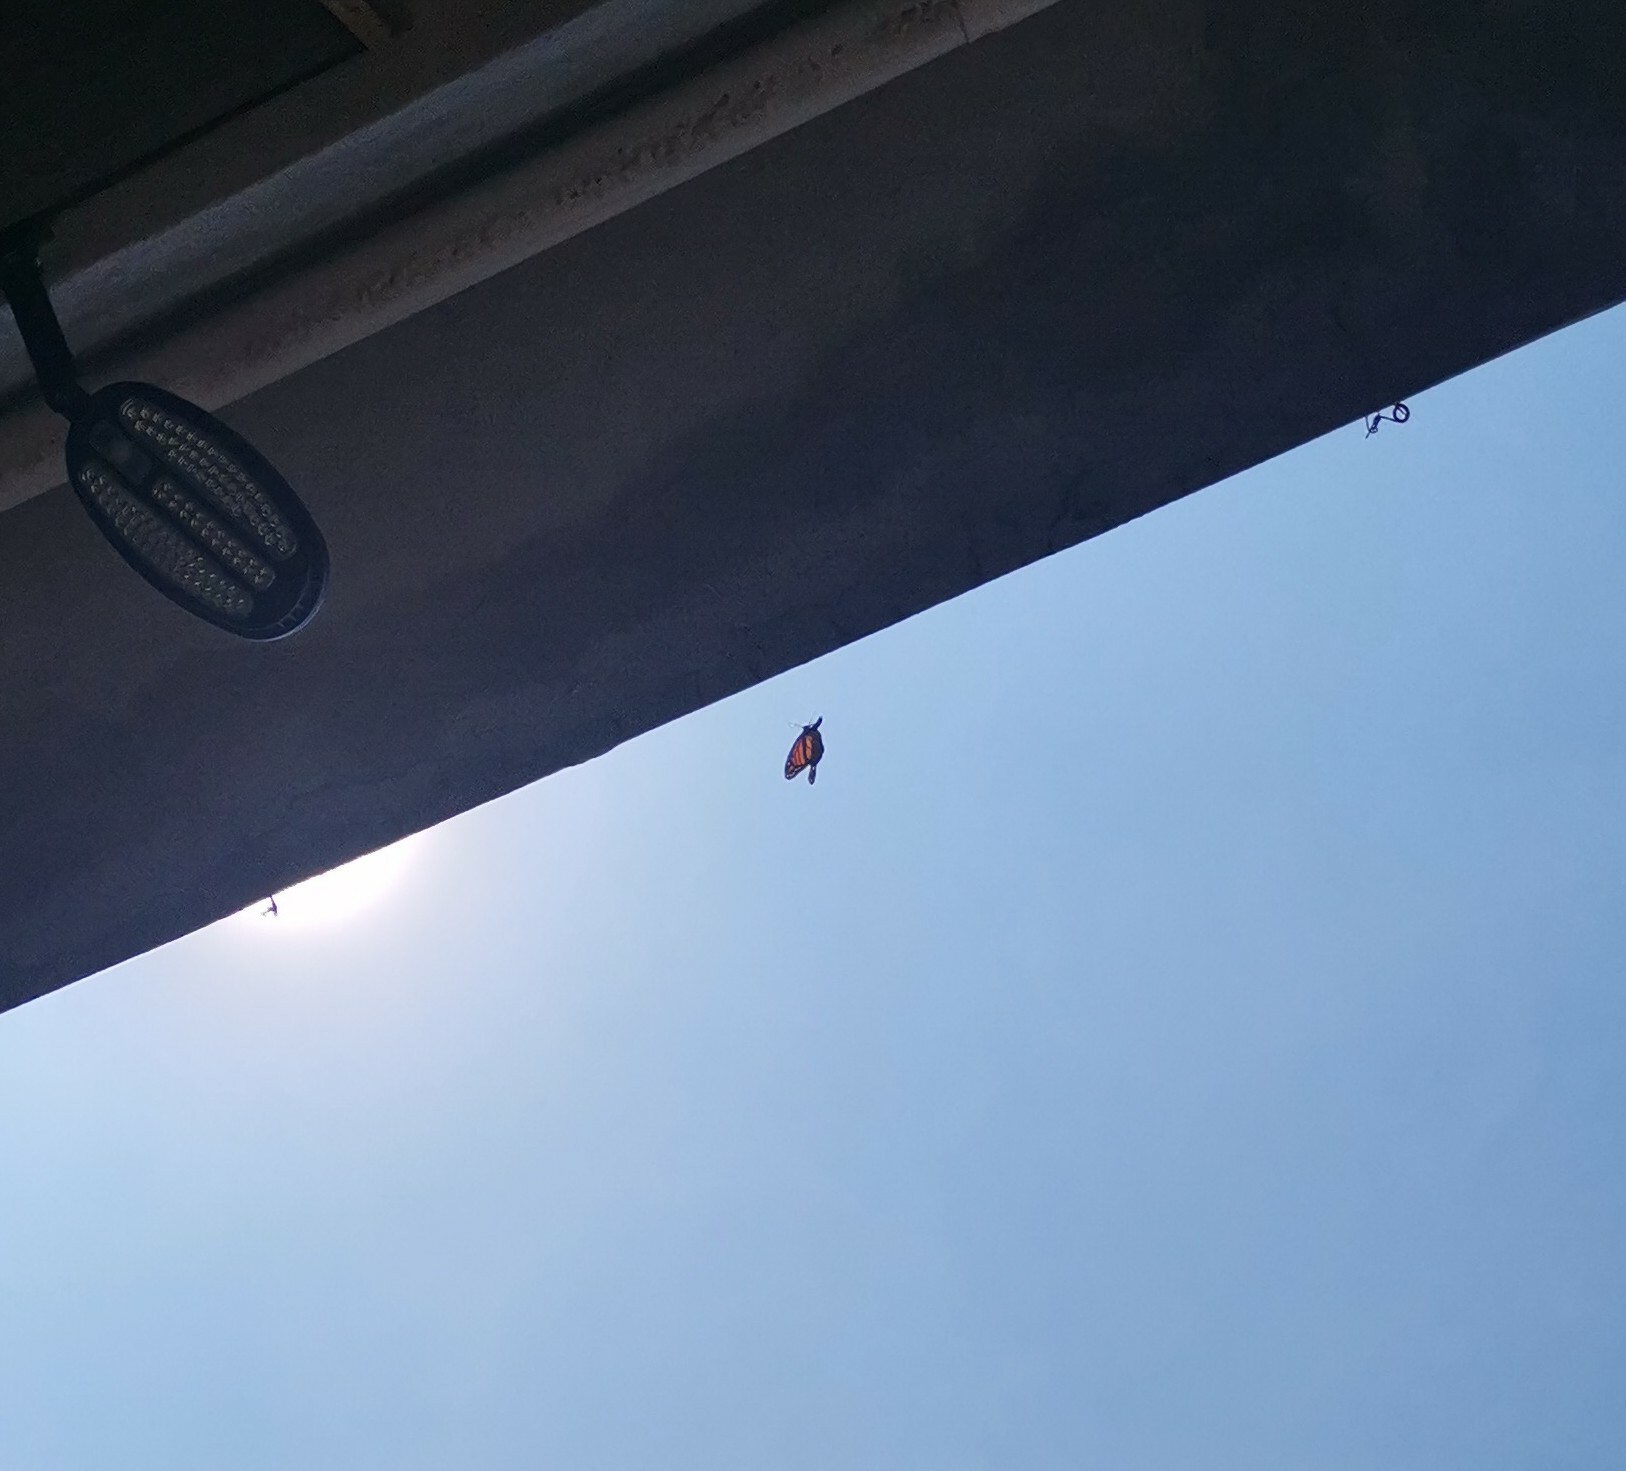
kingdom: Animalia
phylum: Arthropoda
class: Insecta
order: Lepidoptera
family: Nymphalidae
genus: Danaus
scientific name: Danaus plexippus
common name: Monarch
